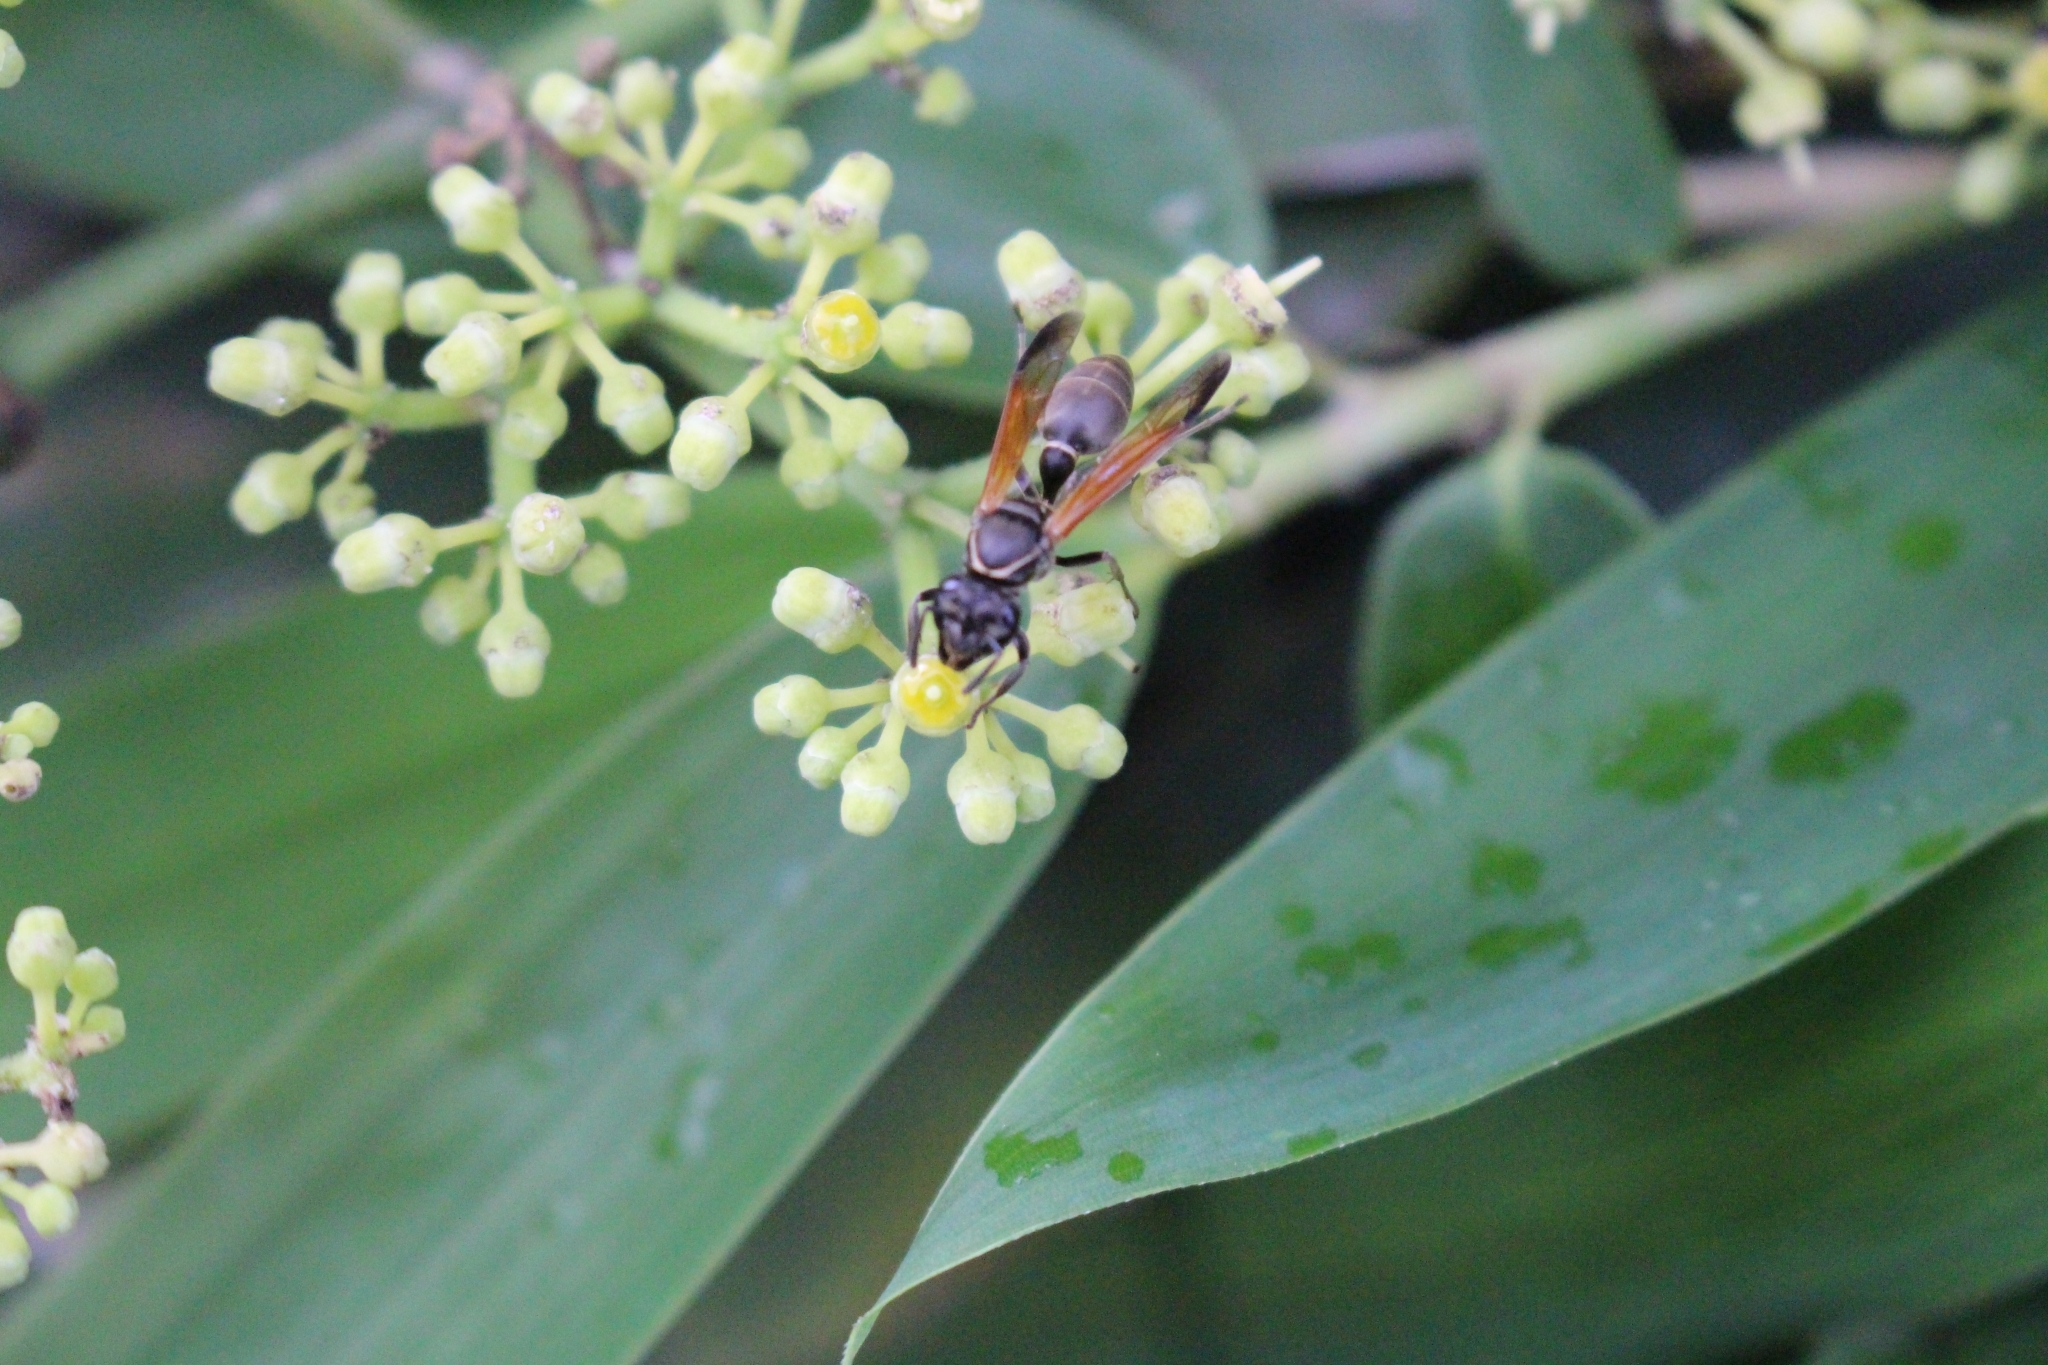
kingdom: Animalia
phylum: Arthropoda
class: Insecta
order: Hymenoptera
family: Eumenidae
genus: Polybia
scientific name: Polybia rejecta
